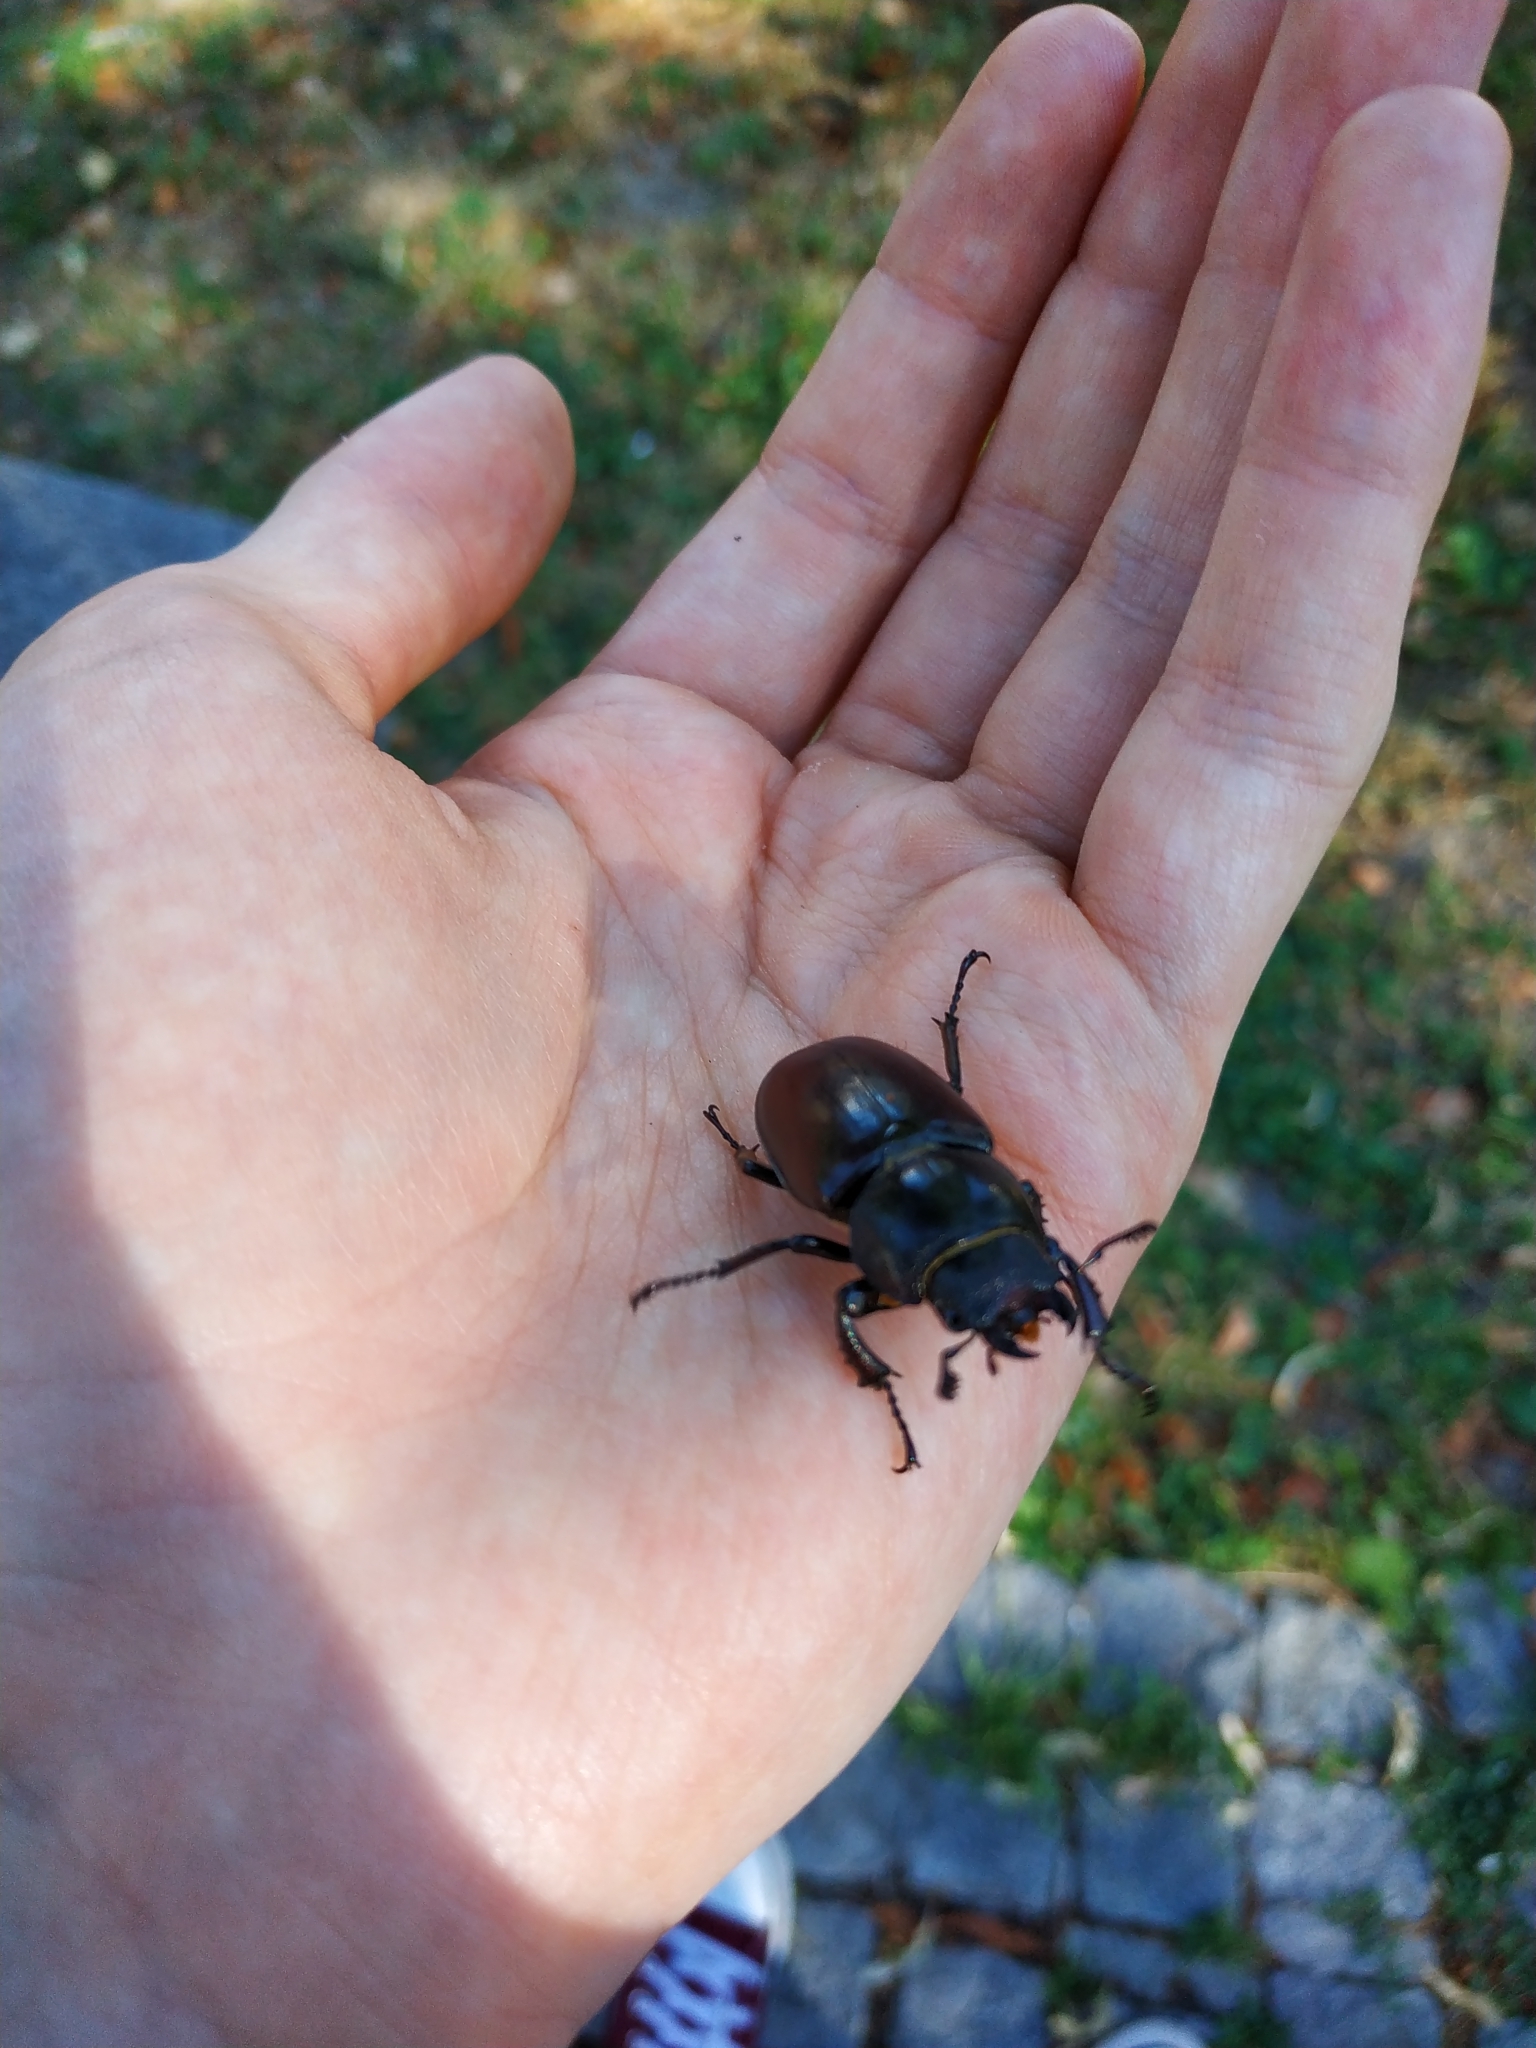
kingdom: Animalia
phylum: Arthropoda
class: Insecta
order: Coleoptera
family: Lucanidae
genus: Lucanus
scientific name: Lucanus cervus
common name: Stag beetle
